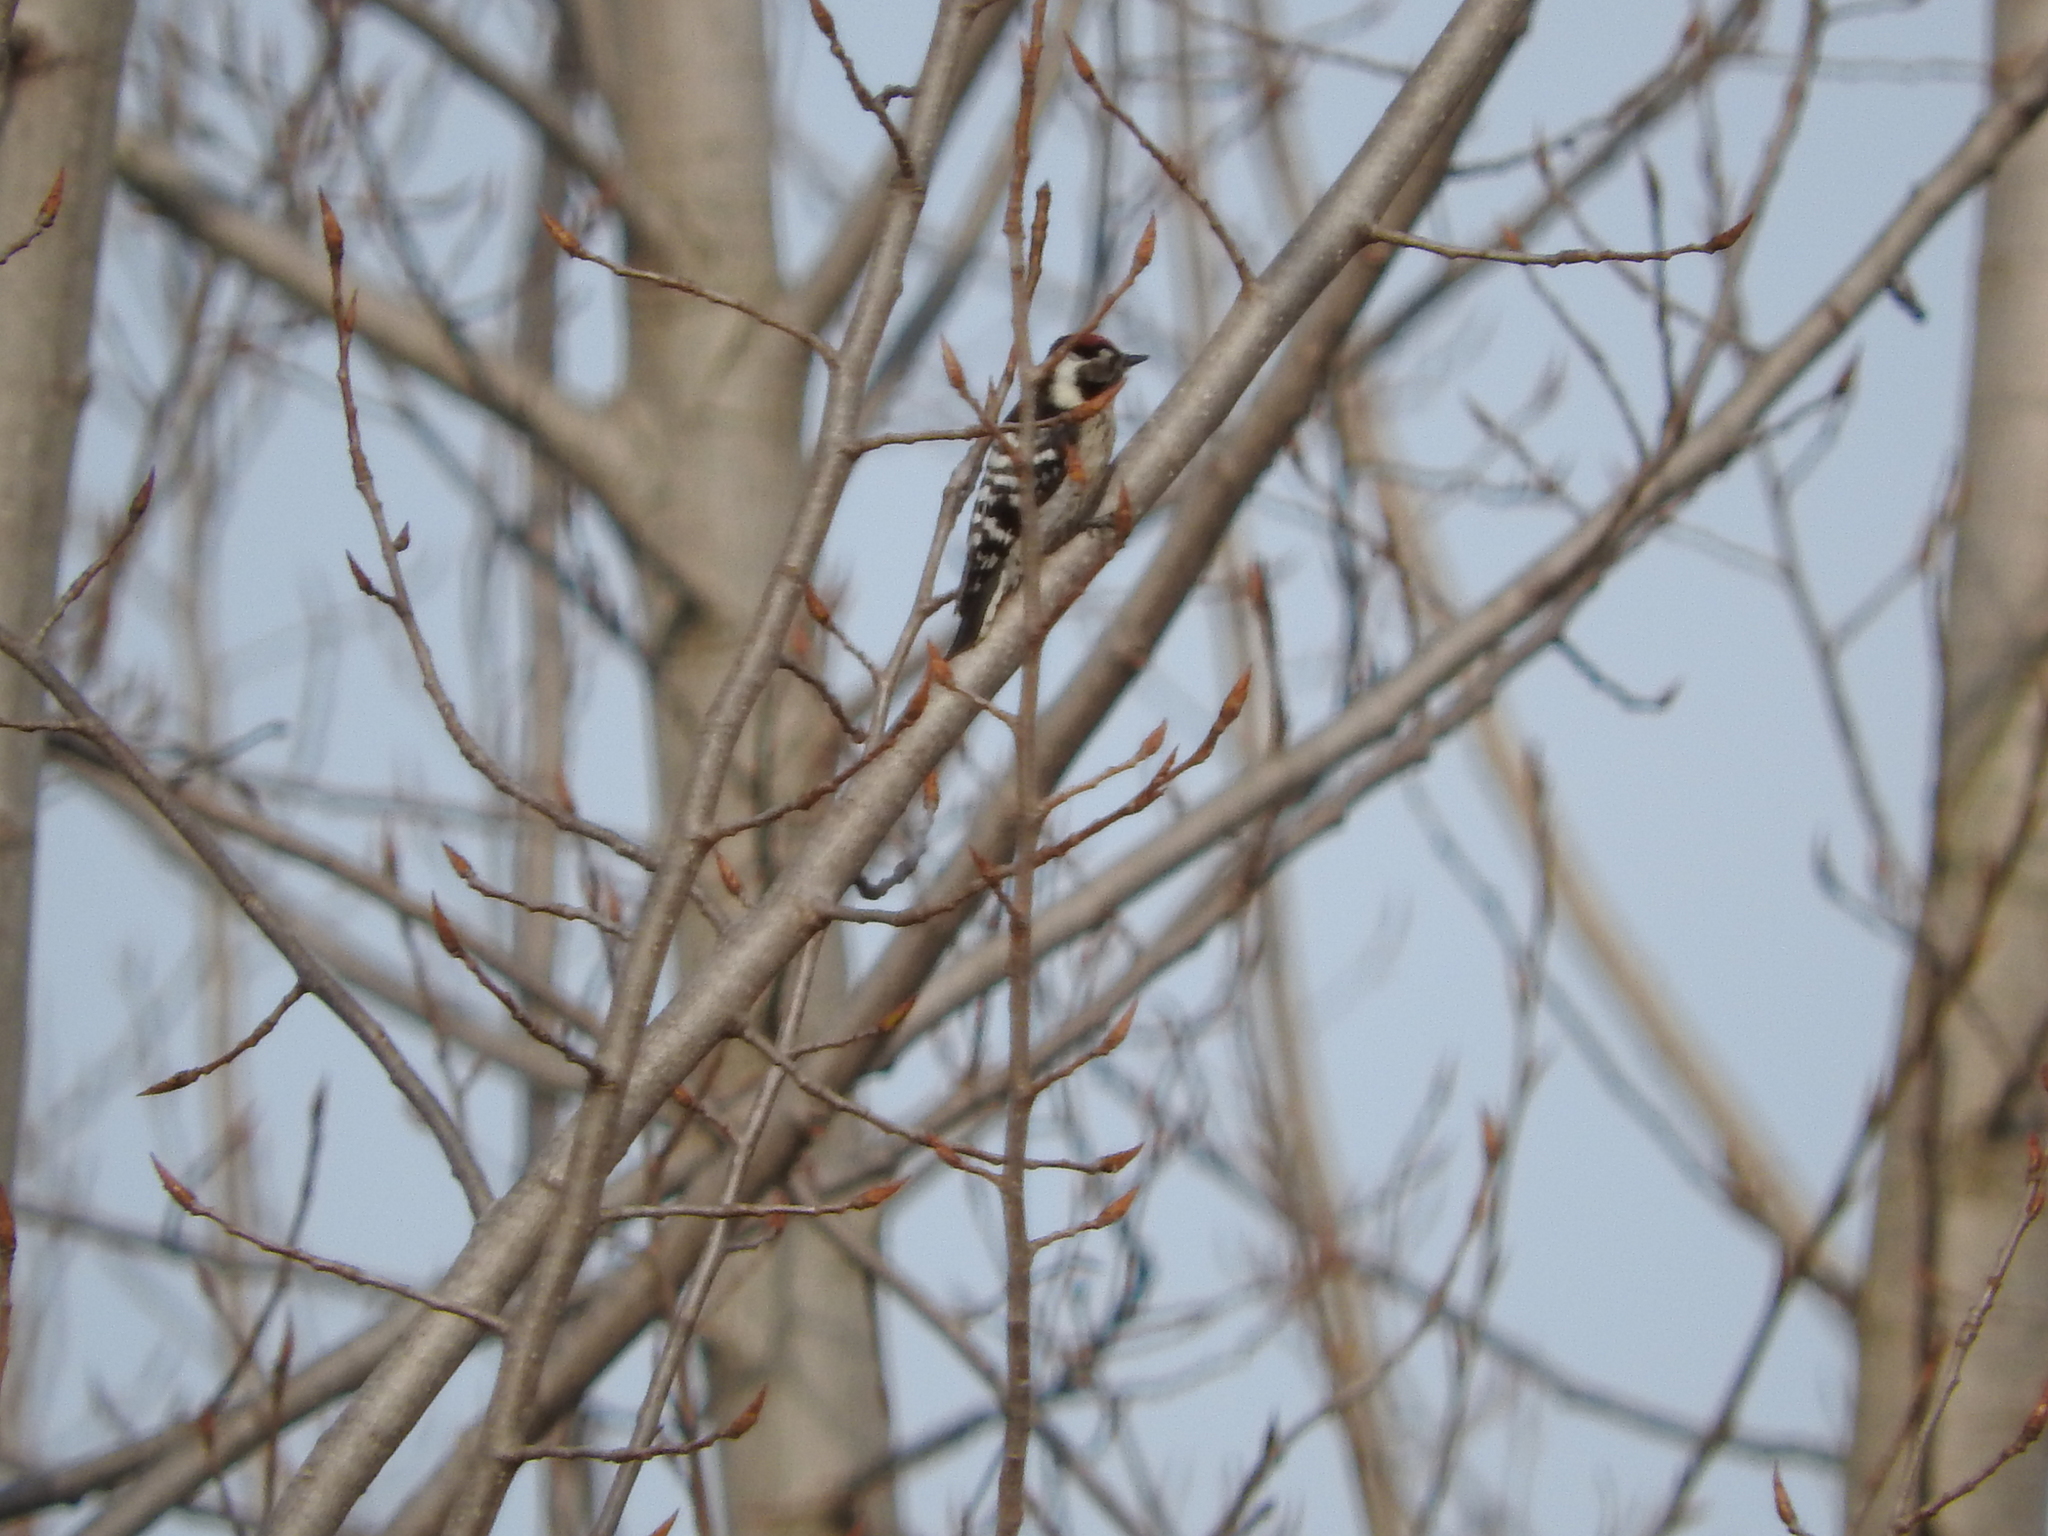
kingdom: Animalia
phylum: Chordata
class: Aves
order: Piciformes
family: Picidae
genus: Dryobates
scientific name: Dryobates minor
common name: Lesser spotted woodpecker
